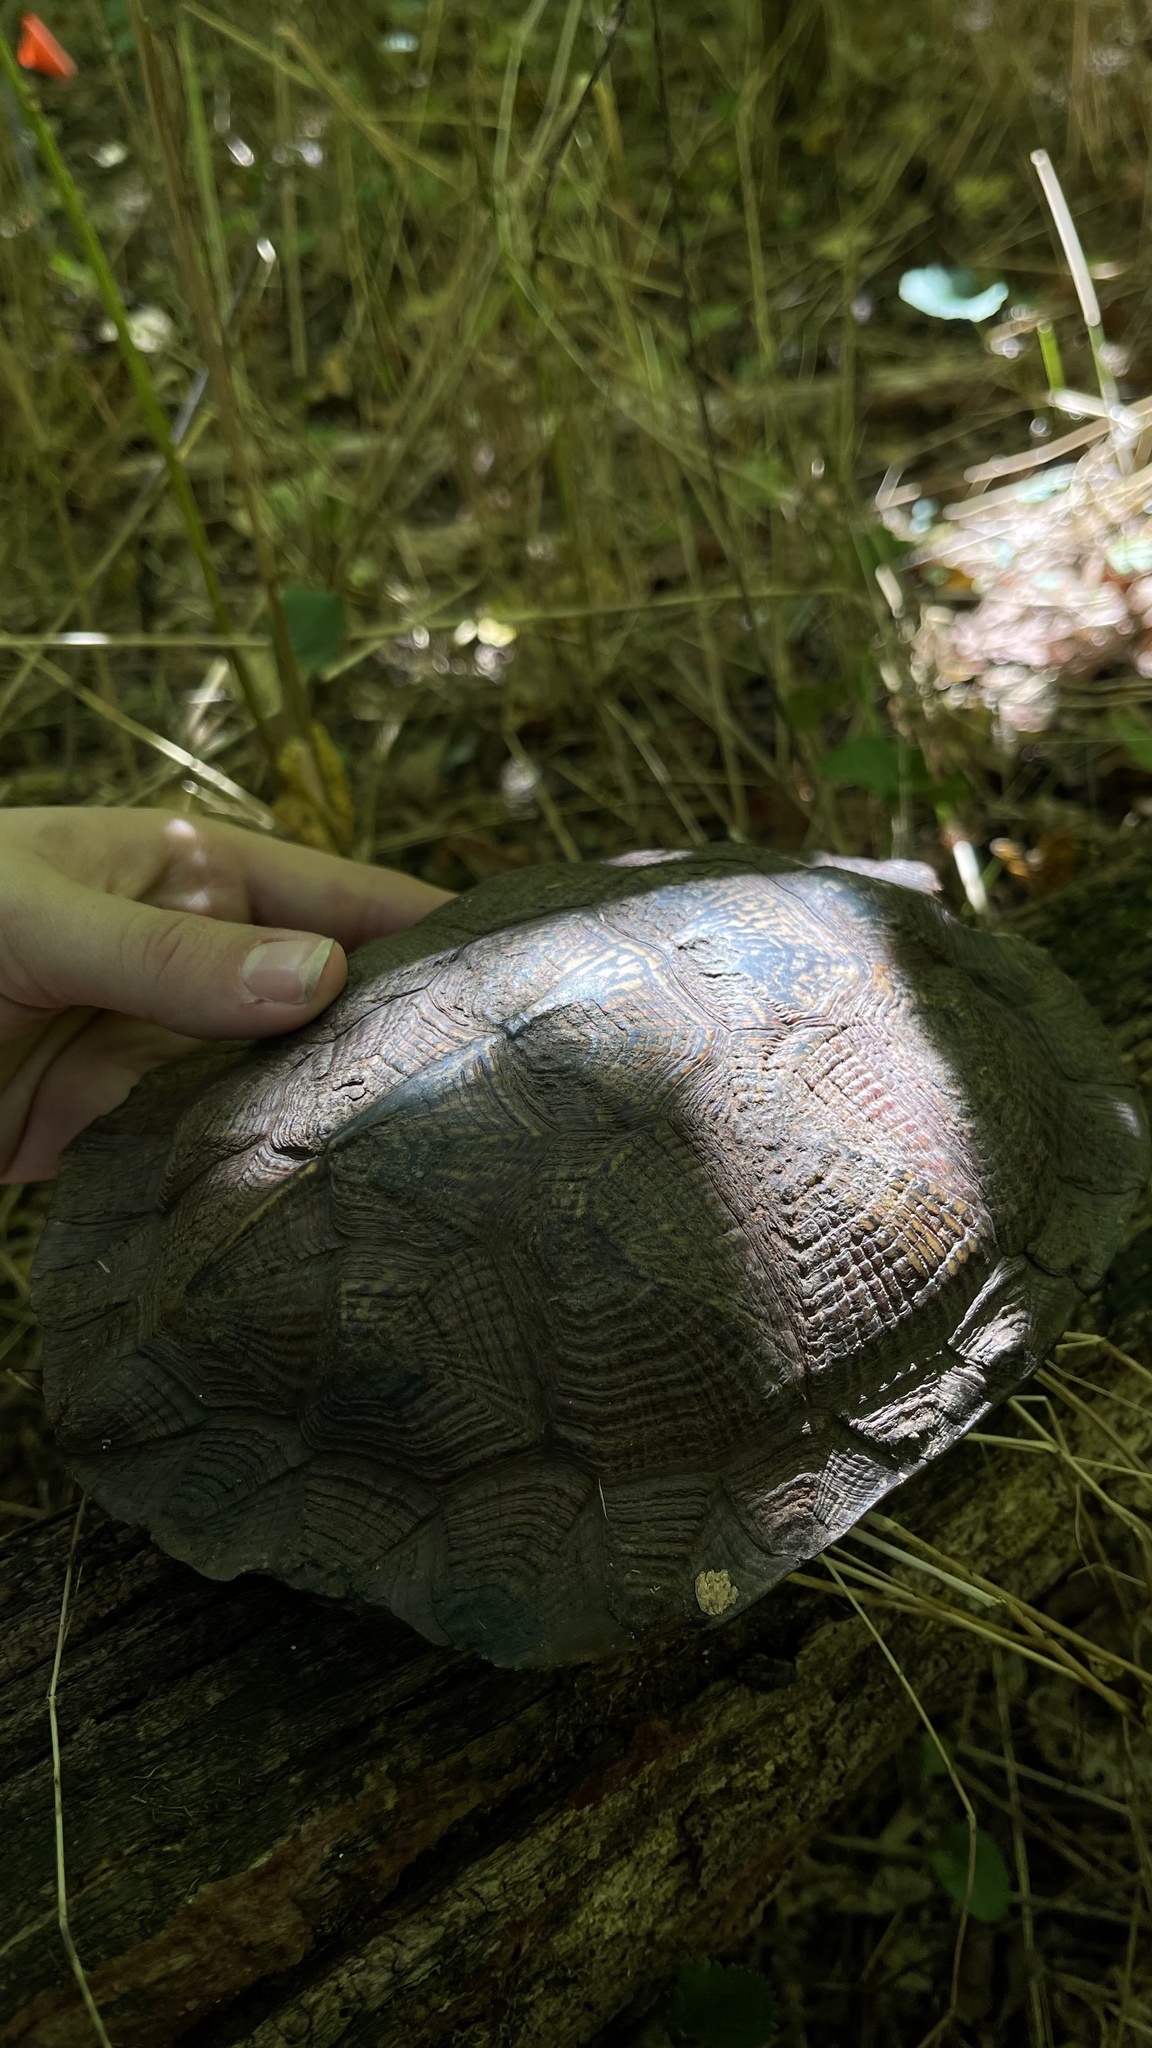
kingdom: Animalia
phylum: Chordata
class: Testudines
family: Emydidae
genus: Glyptemys
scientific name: Glyptemys insculpta
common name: Wood turtle
